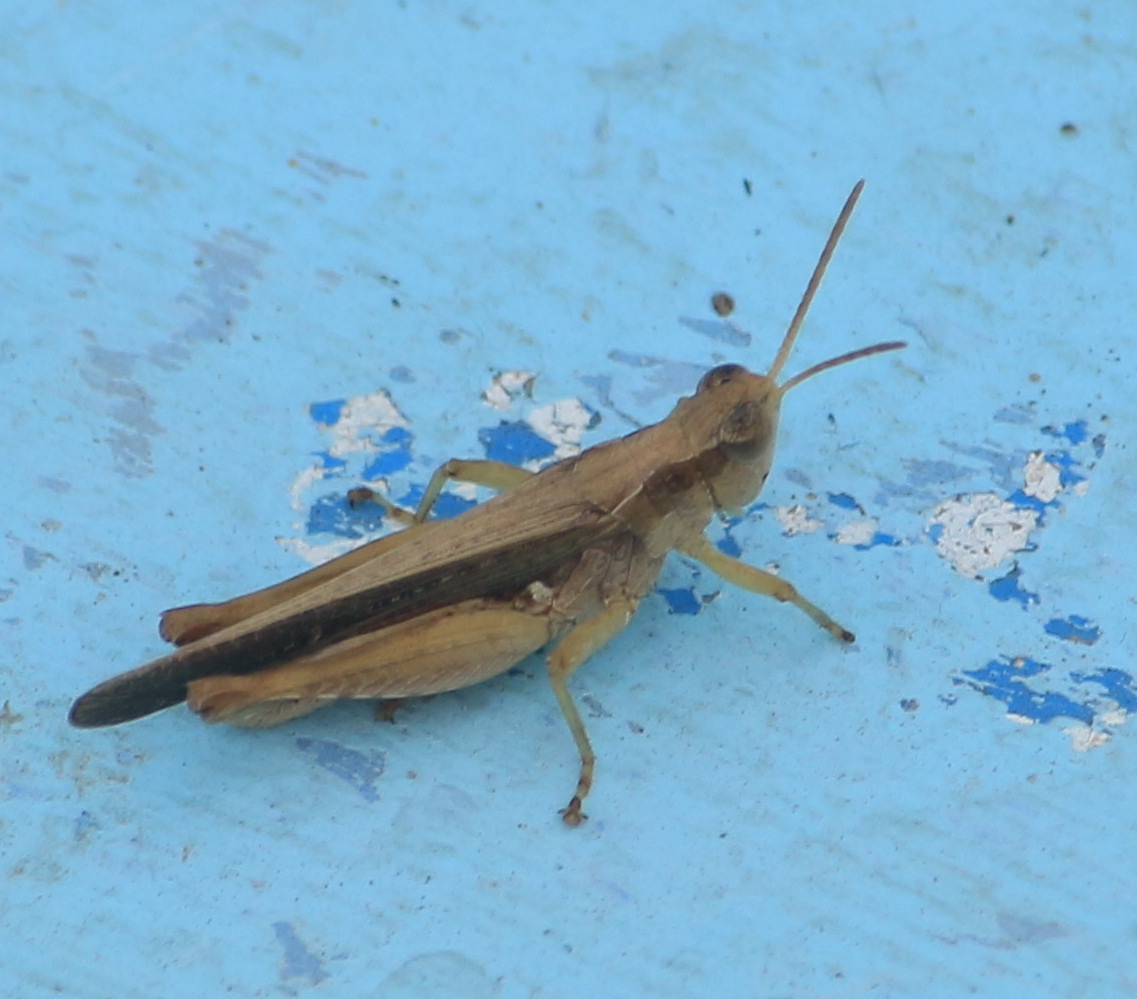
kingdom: Animalia
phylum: Arthropoda
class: Insecta
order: Orthoptera
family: Acrididae
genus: Orphulella
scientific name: Orphulella punctata
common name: Slant-faced grasshopper
